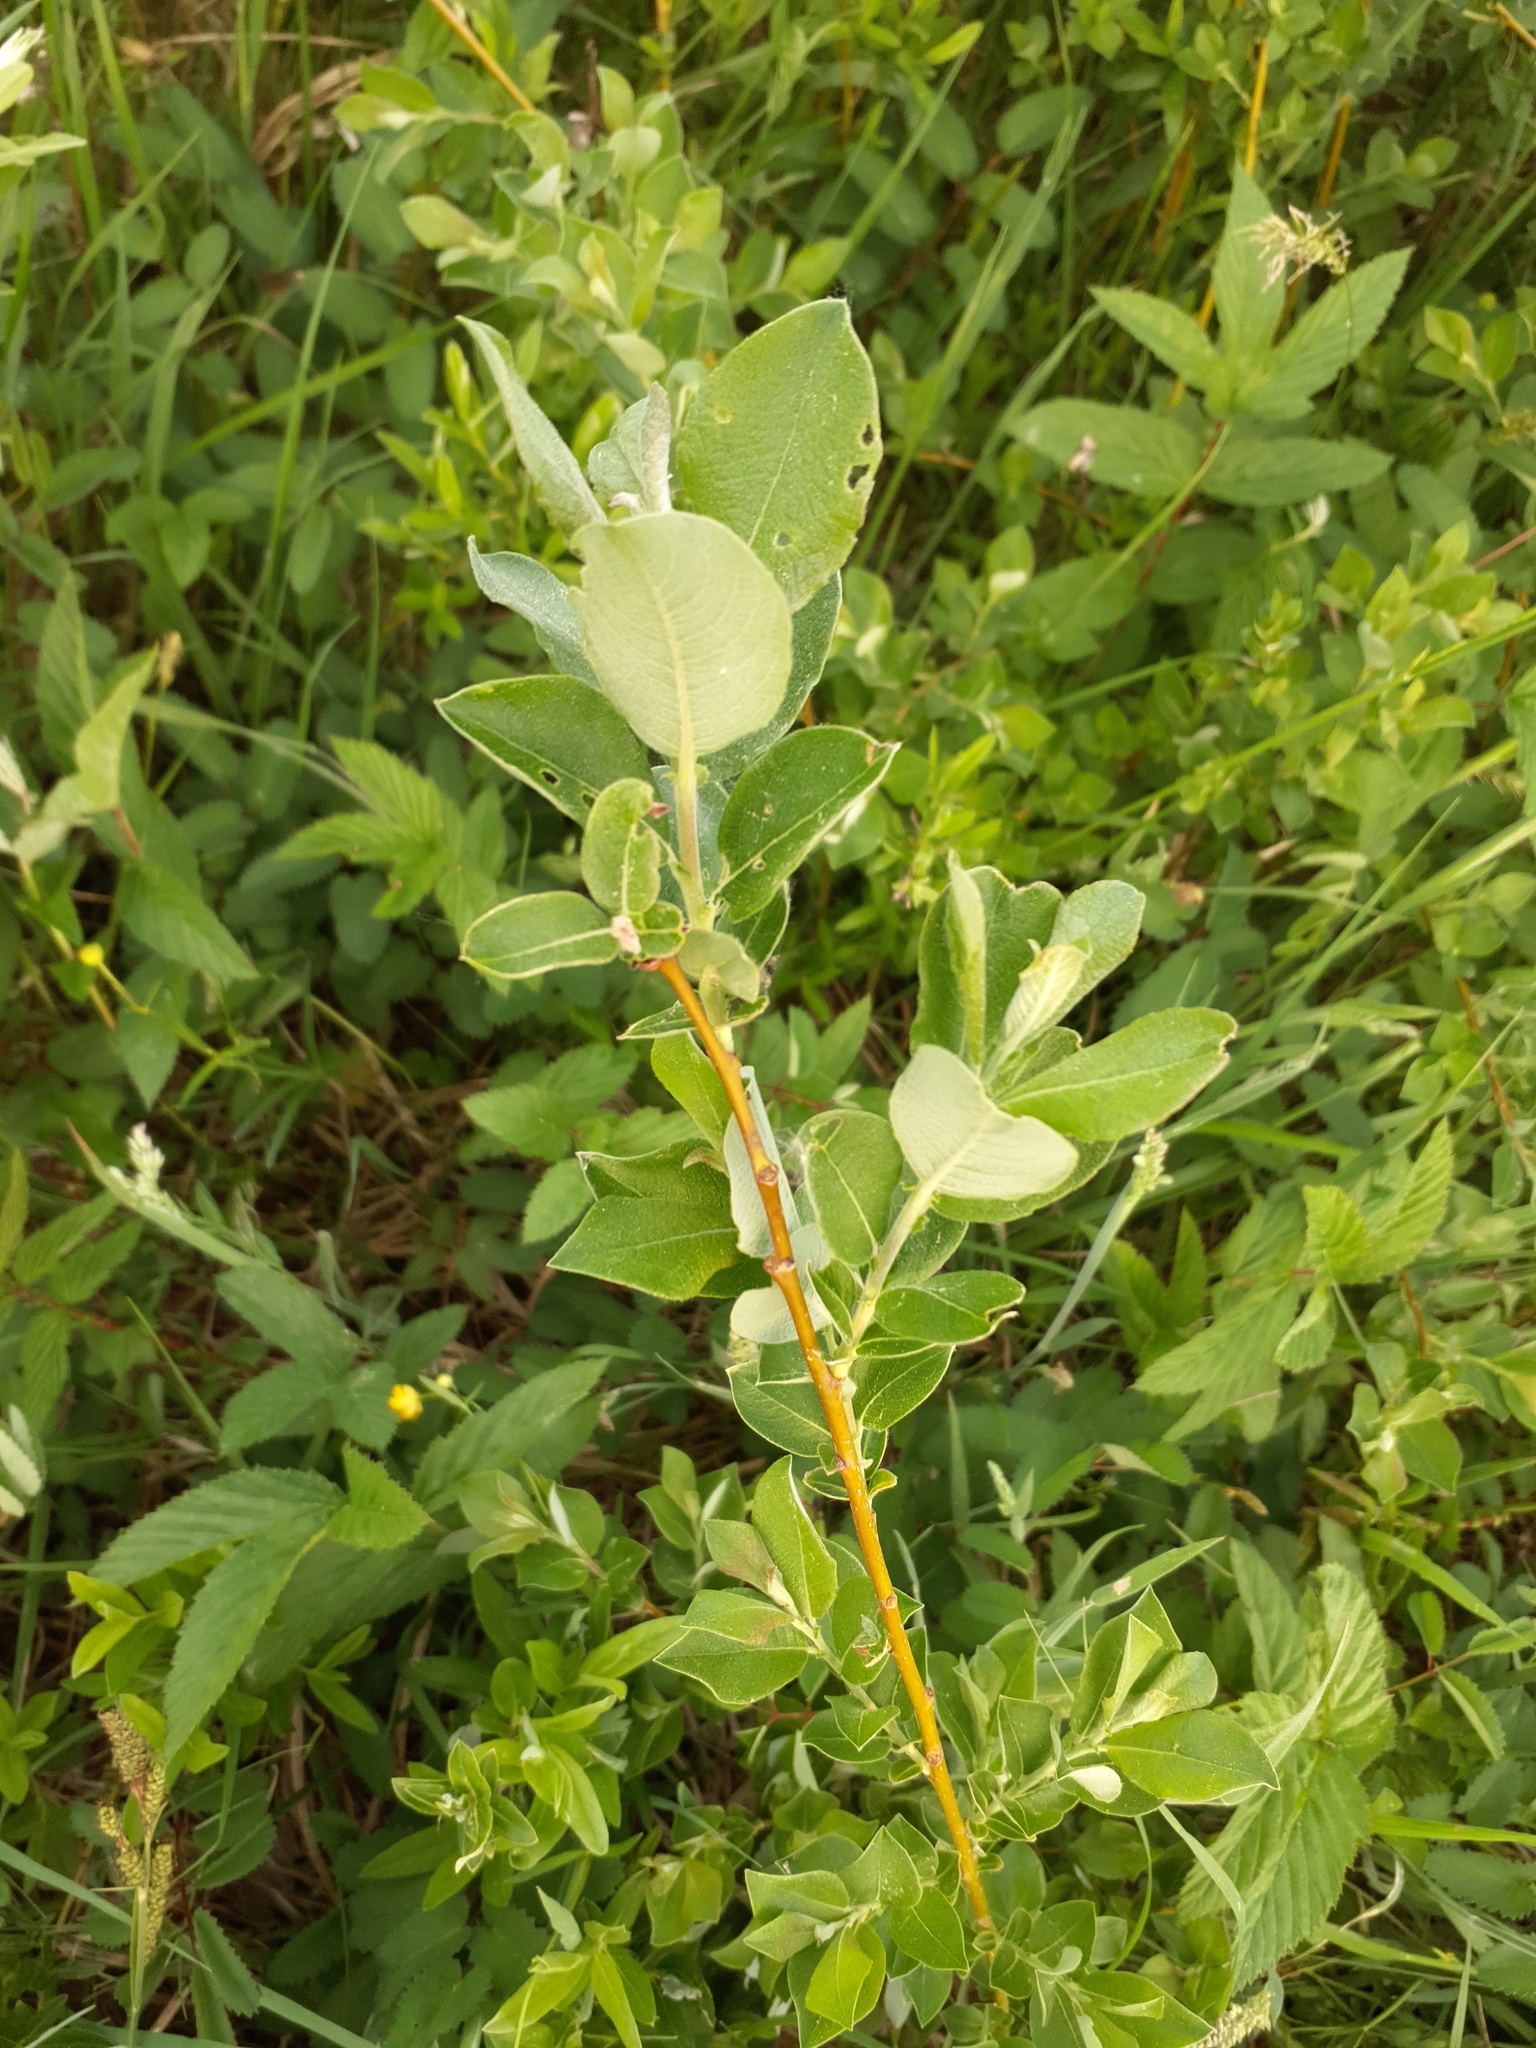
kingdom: Plantae
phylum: Tracheophyta
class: Magnoliopsida
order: Malpighiales
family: Salicaceae
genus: Salix
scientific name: Salix caprea
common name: Goat willow
